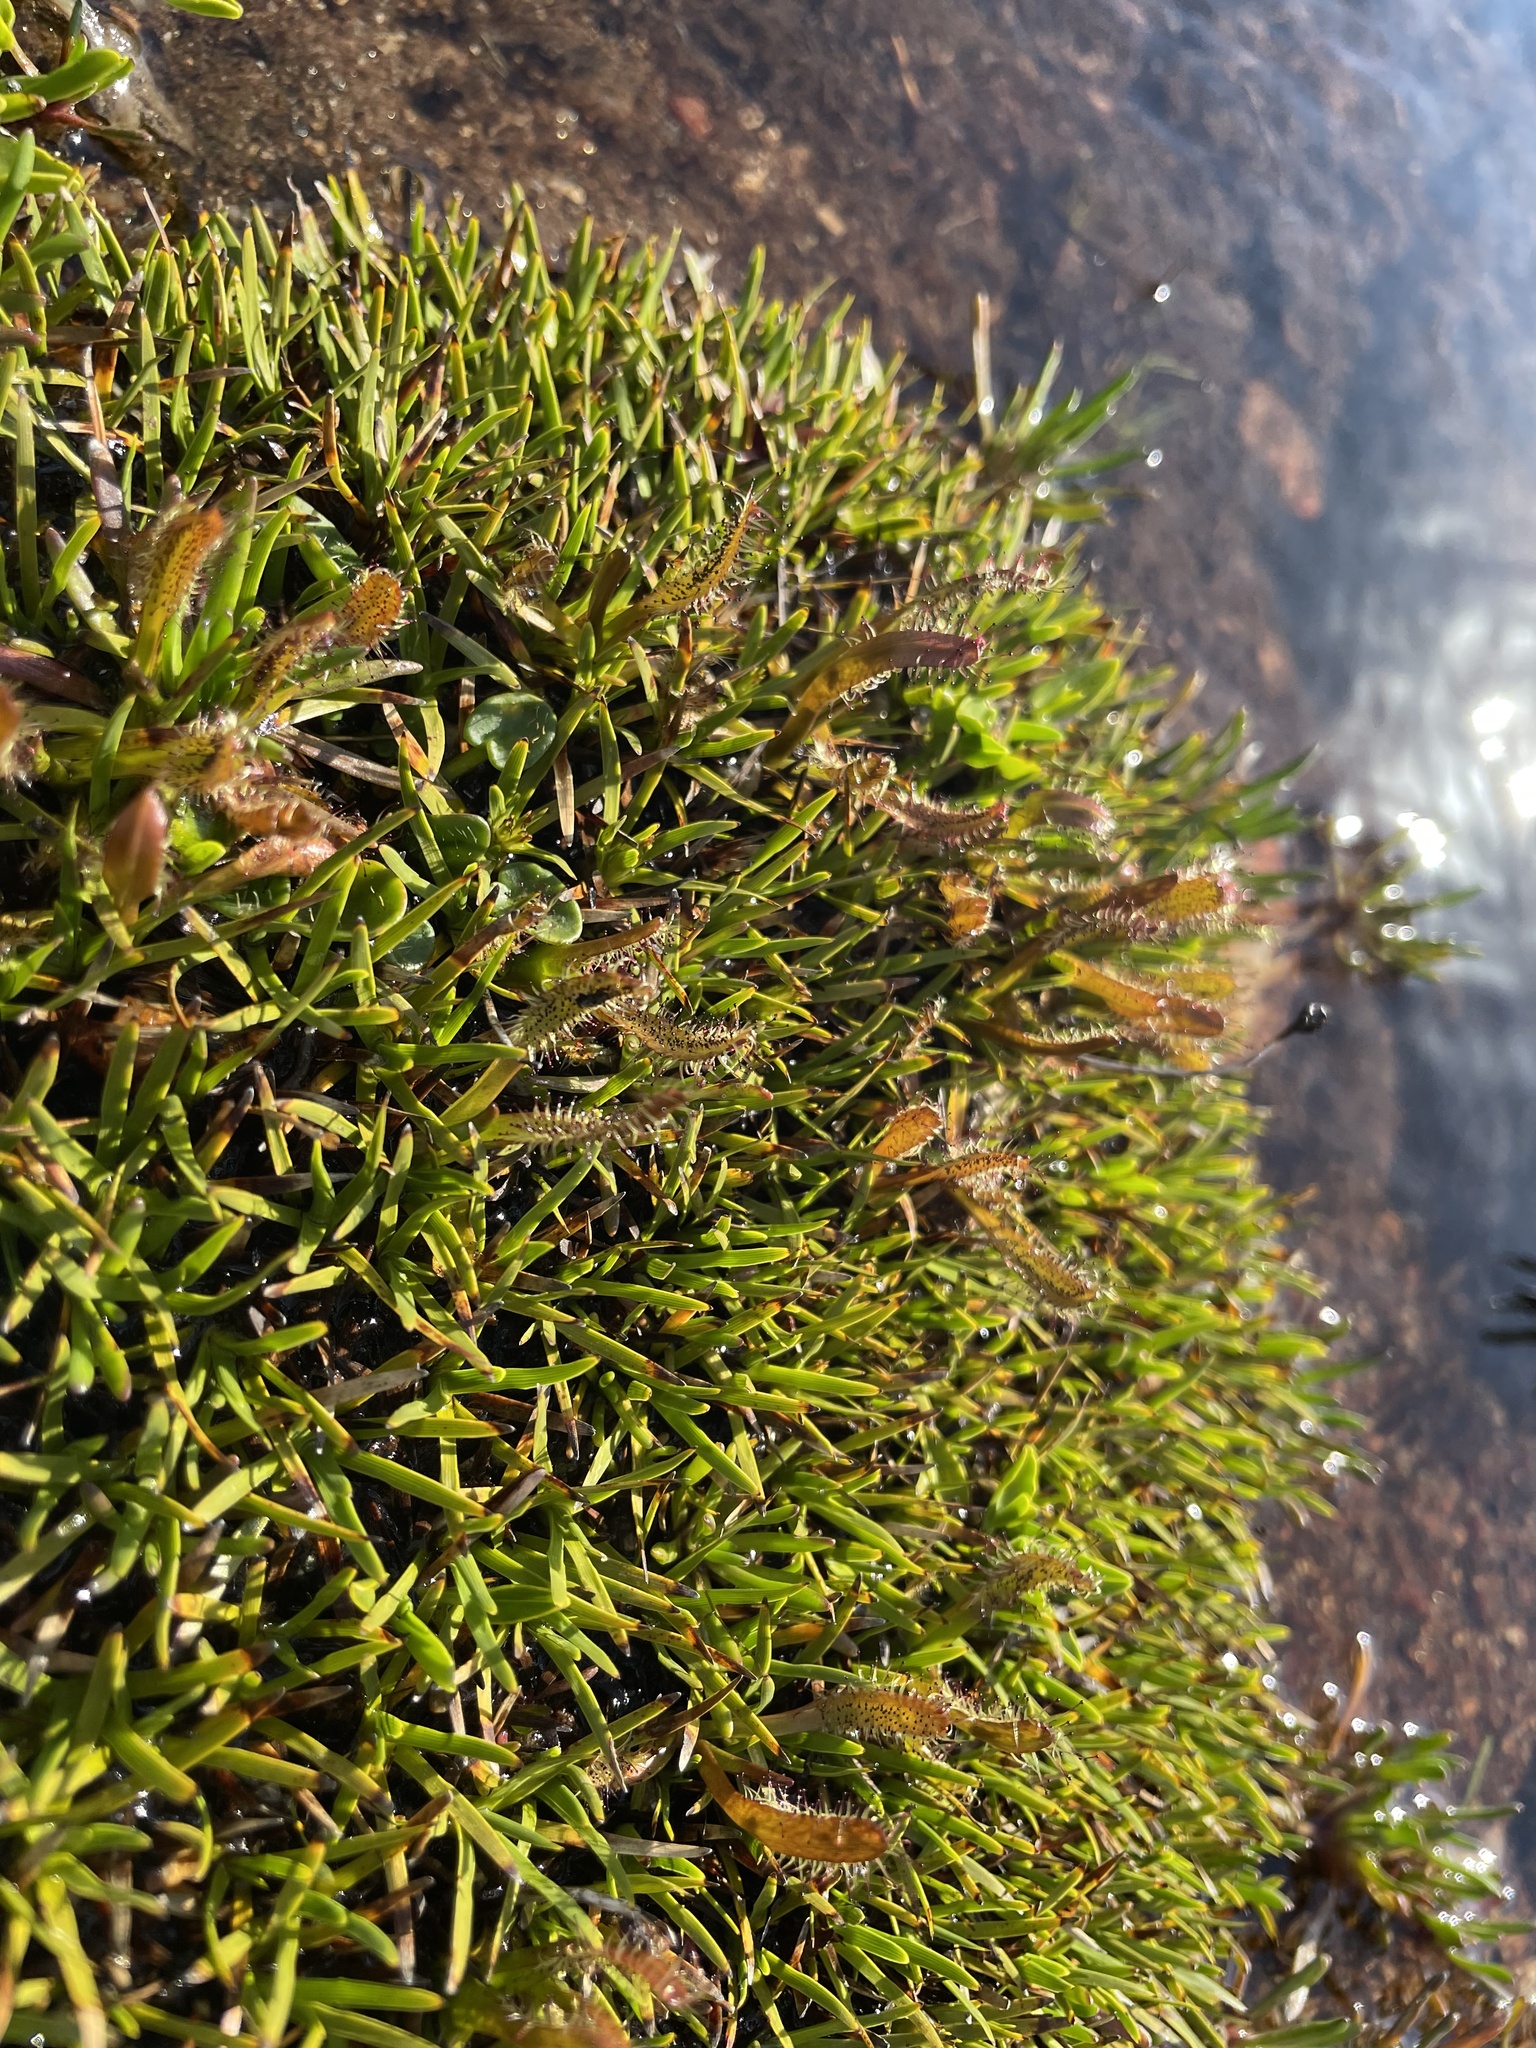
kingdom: Plantae
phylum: Tracheophyta
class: Magnoliopsida
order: Caryophyllales
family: Droseraceae
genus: Drosera
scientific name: Drosera arcturi
